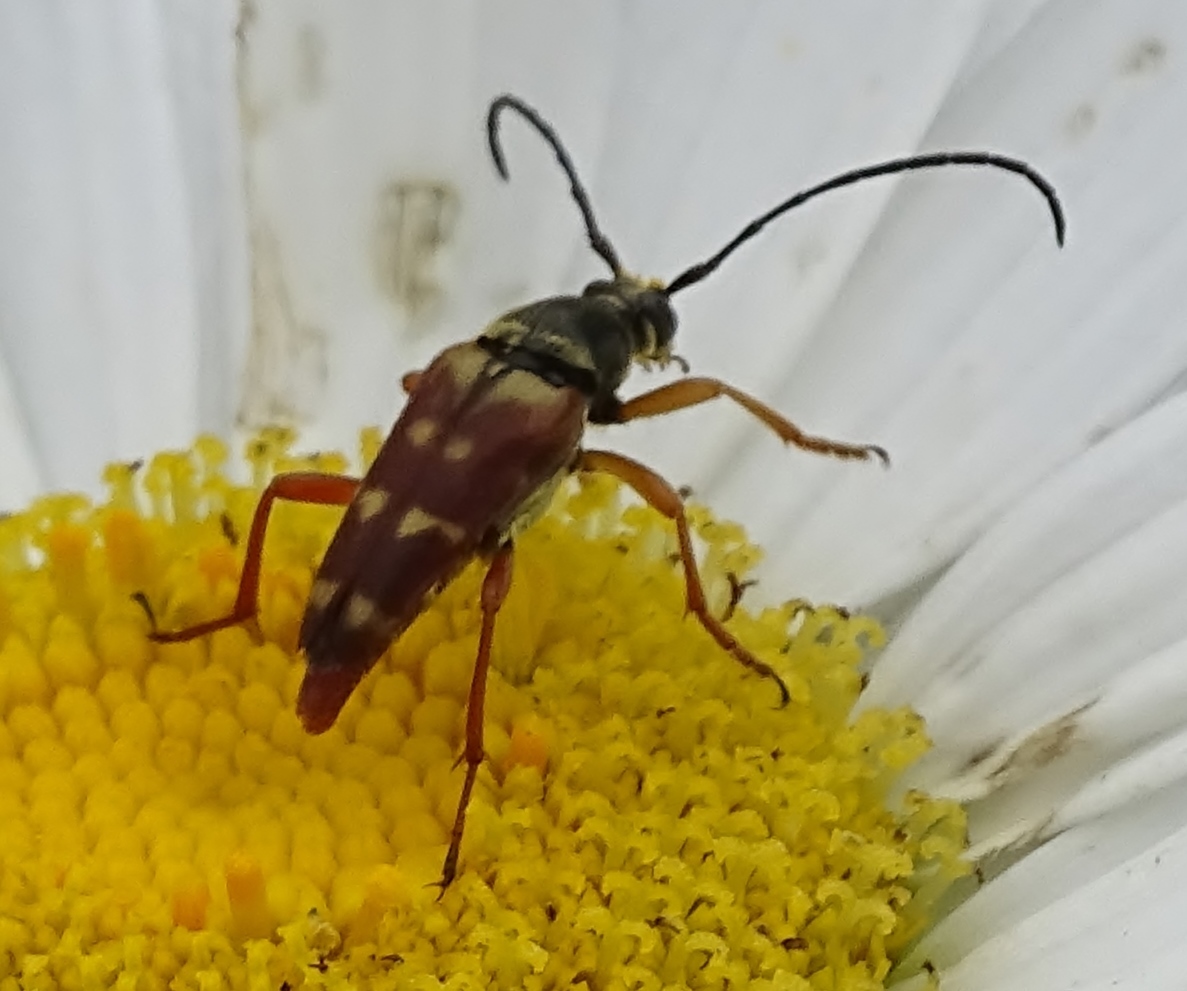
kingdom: Animalia
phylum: Arthropoda
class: Insecta
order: Coleoptera
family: Cerambycidae
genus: Typocerus
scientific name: Typocerus velutinus
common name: Banded longhorn beetle
